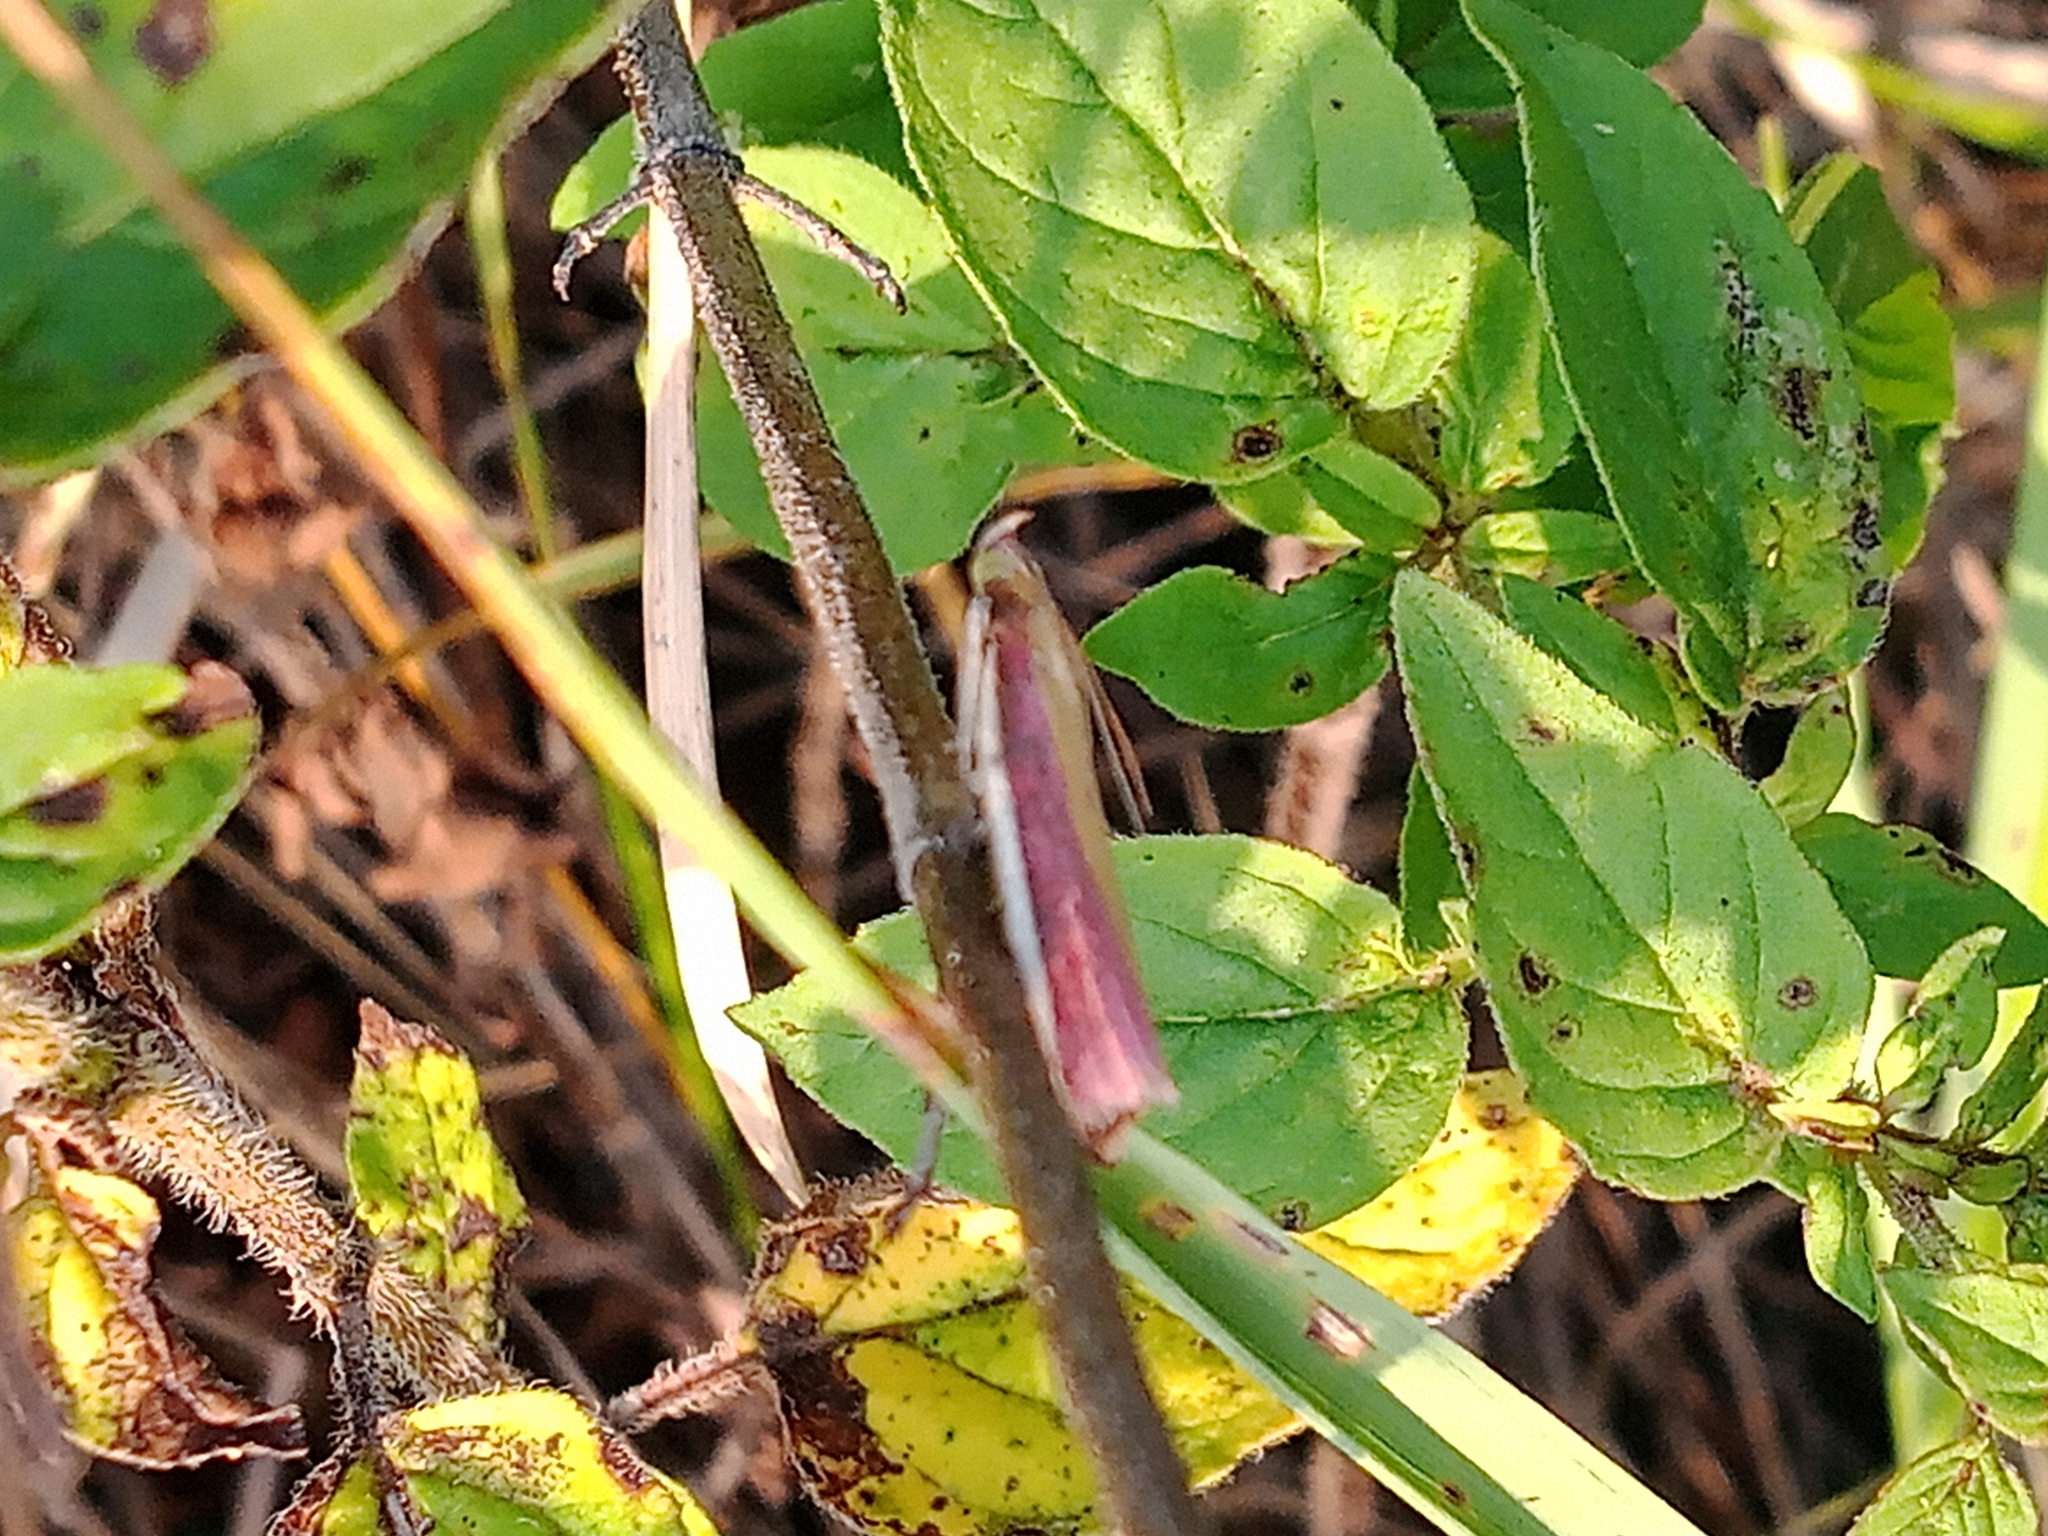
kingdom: Animalia
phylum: Arthropoda
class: Insecta
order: Lepidoptera
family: Pyralidae
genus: Oncocera
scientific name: Oncocera semirubella
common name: Rosy-striped knot-horn
